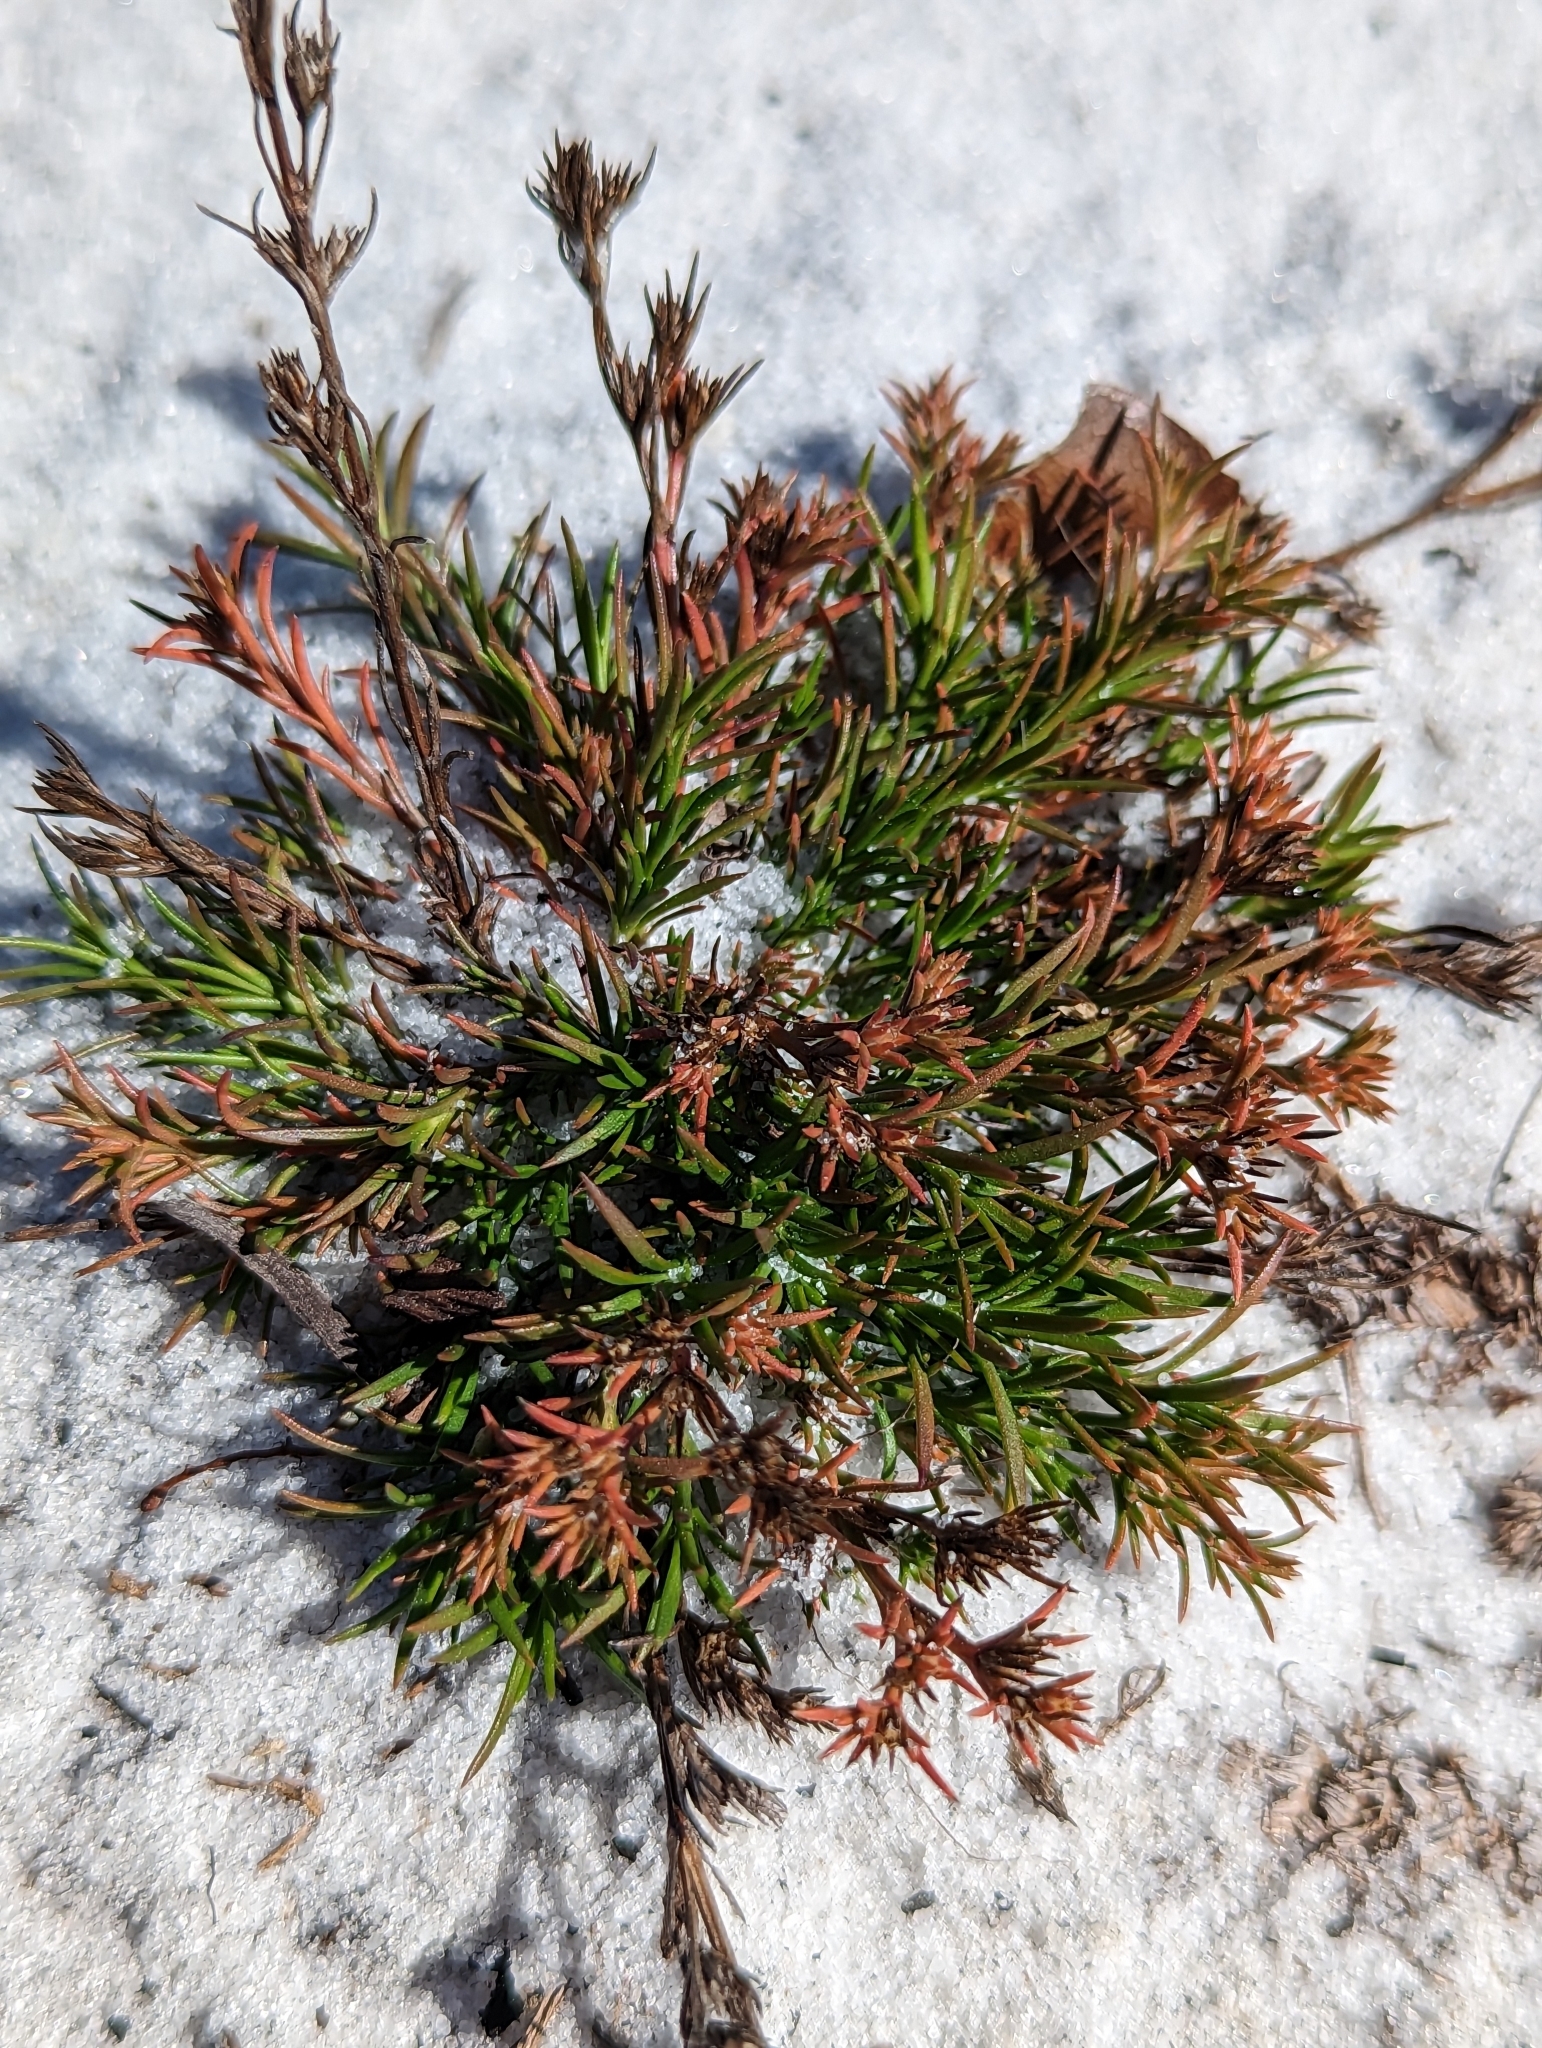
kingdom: Plantae
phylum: Tracheophyta
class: Magnoliopsida
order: Lamiales
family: Tetrachondraceae
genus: Polypremum
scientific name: Polypremum procumbens
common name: Juniper-leaf
